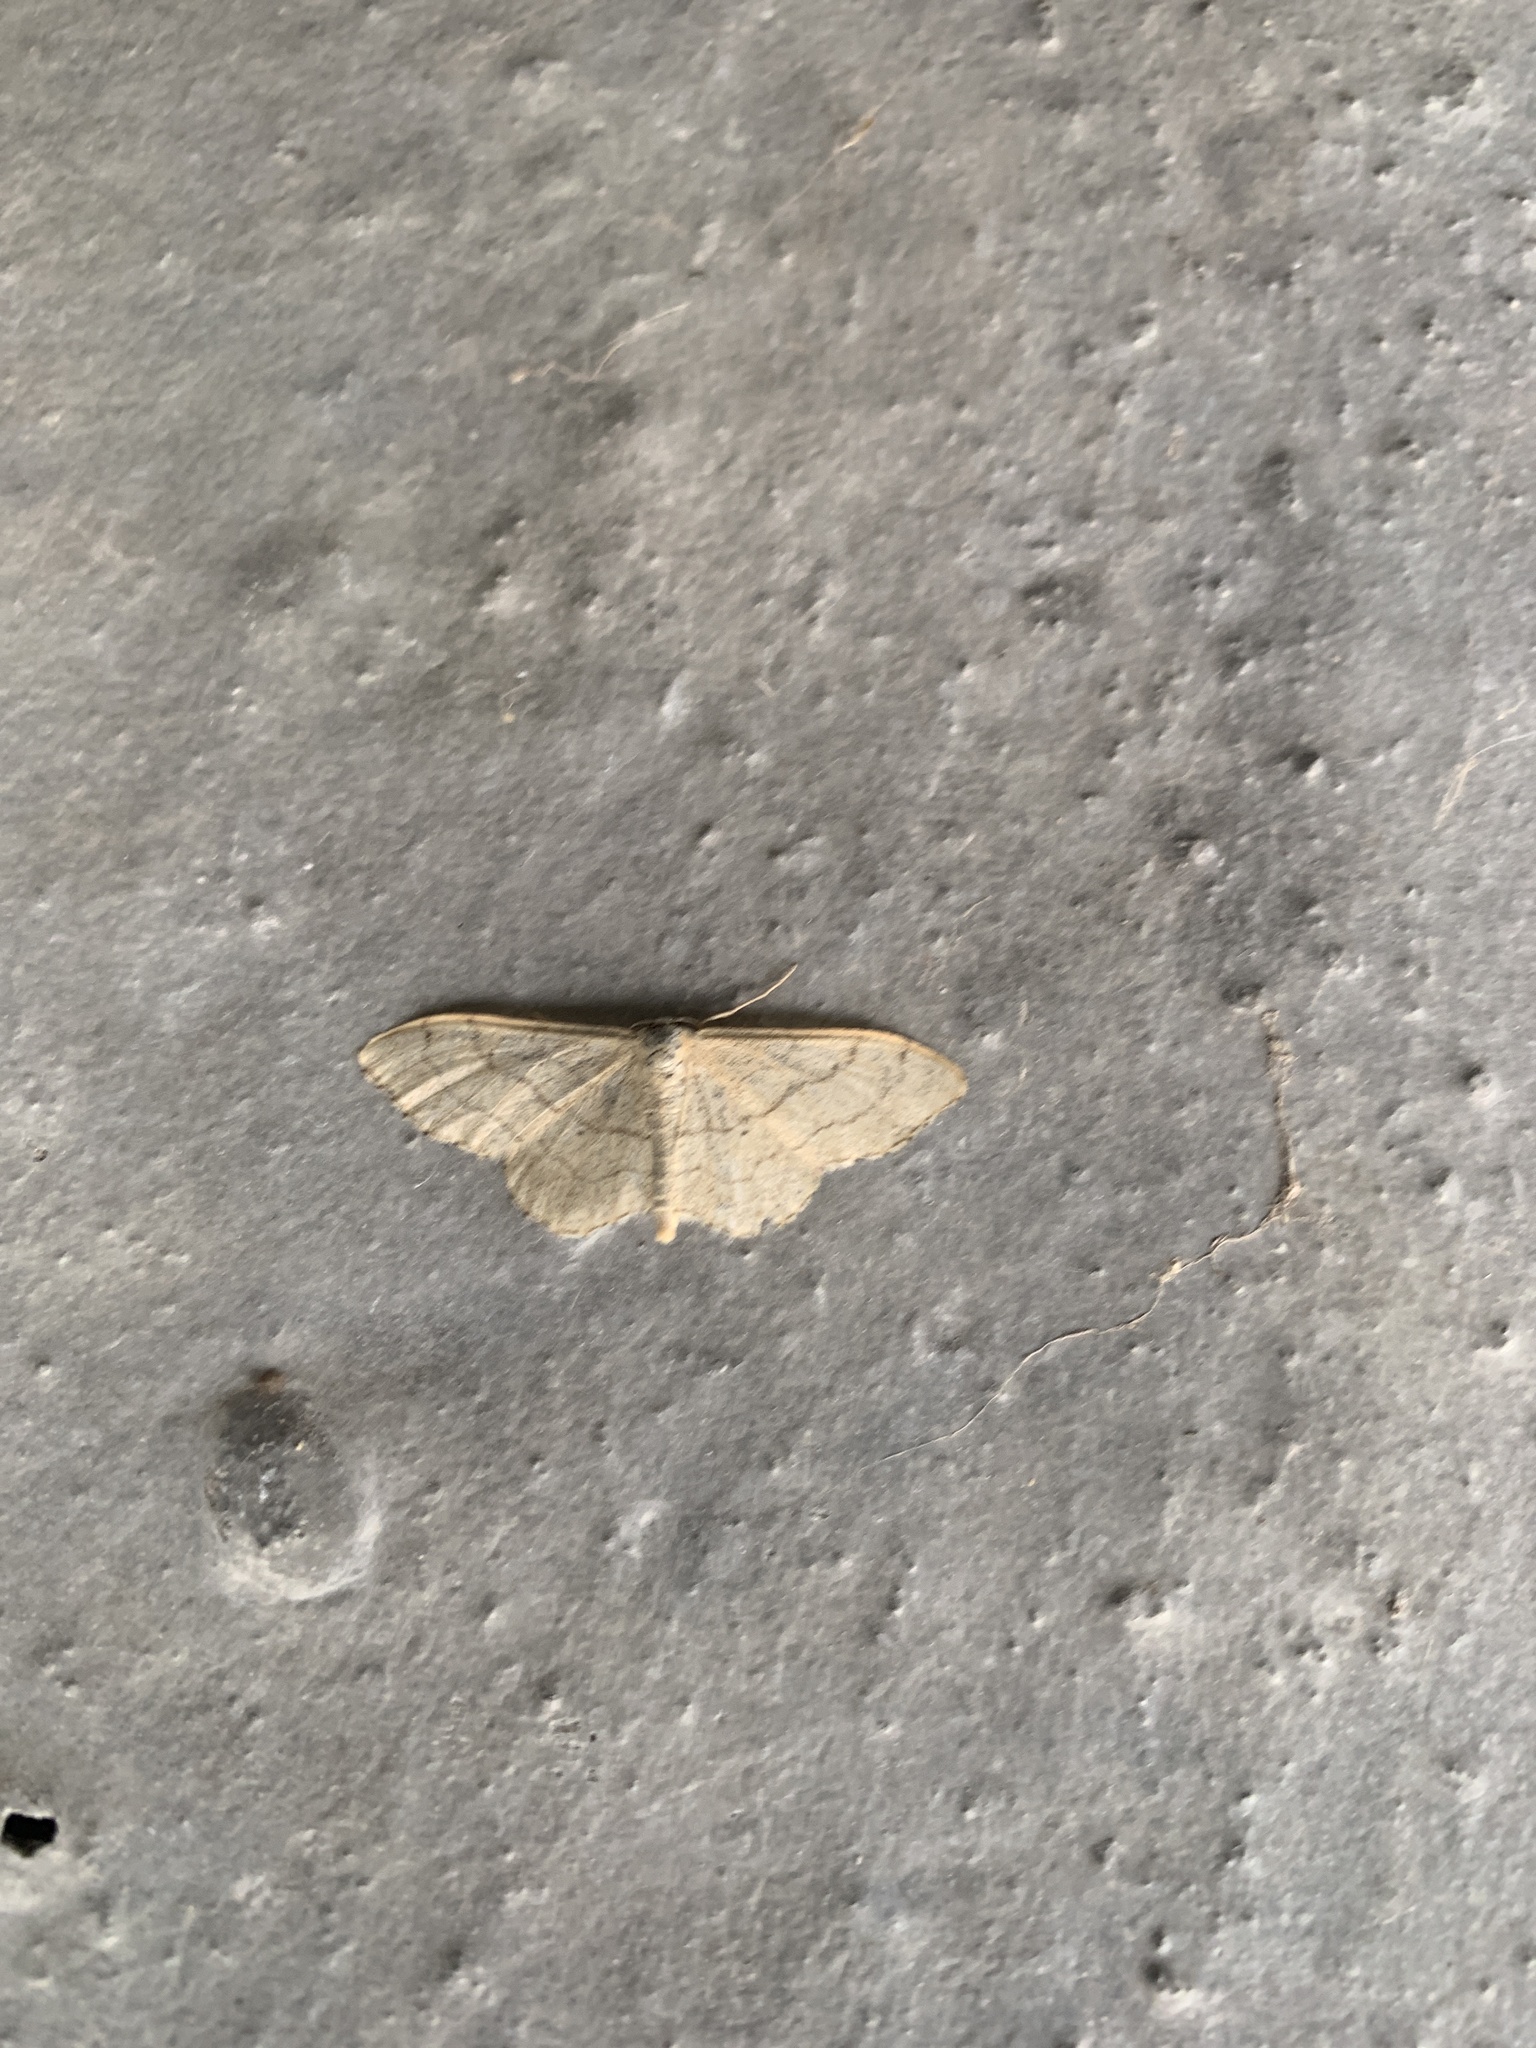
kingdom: Animalia
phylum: Arthropoda
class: Insecta
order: Lepidoptera
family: Geometridae
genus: Idaea
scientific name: Idaea aversata
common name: Riband wave
